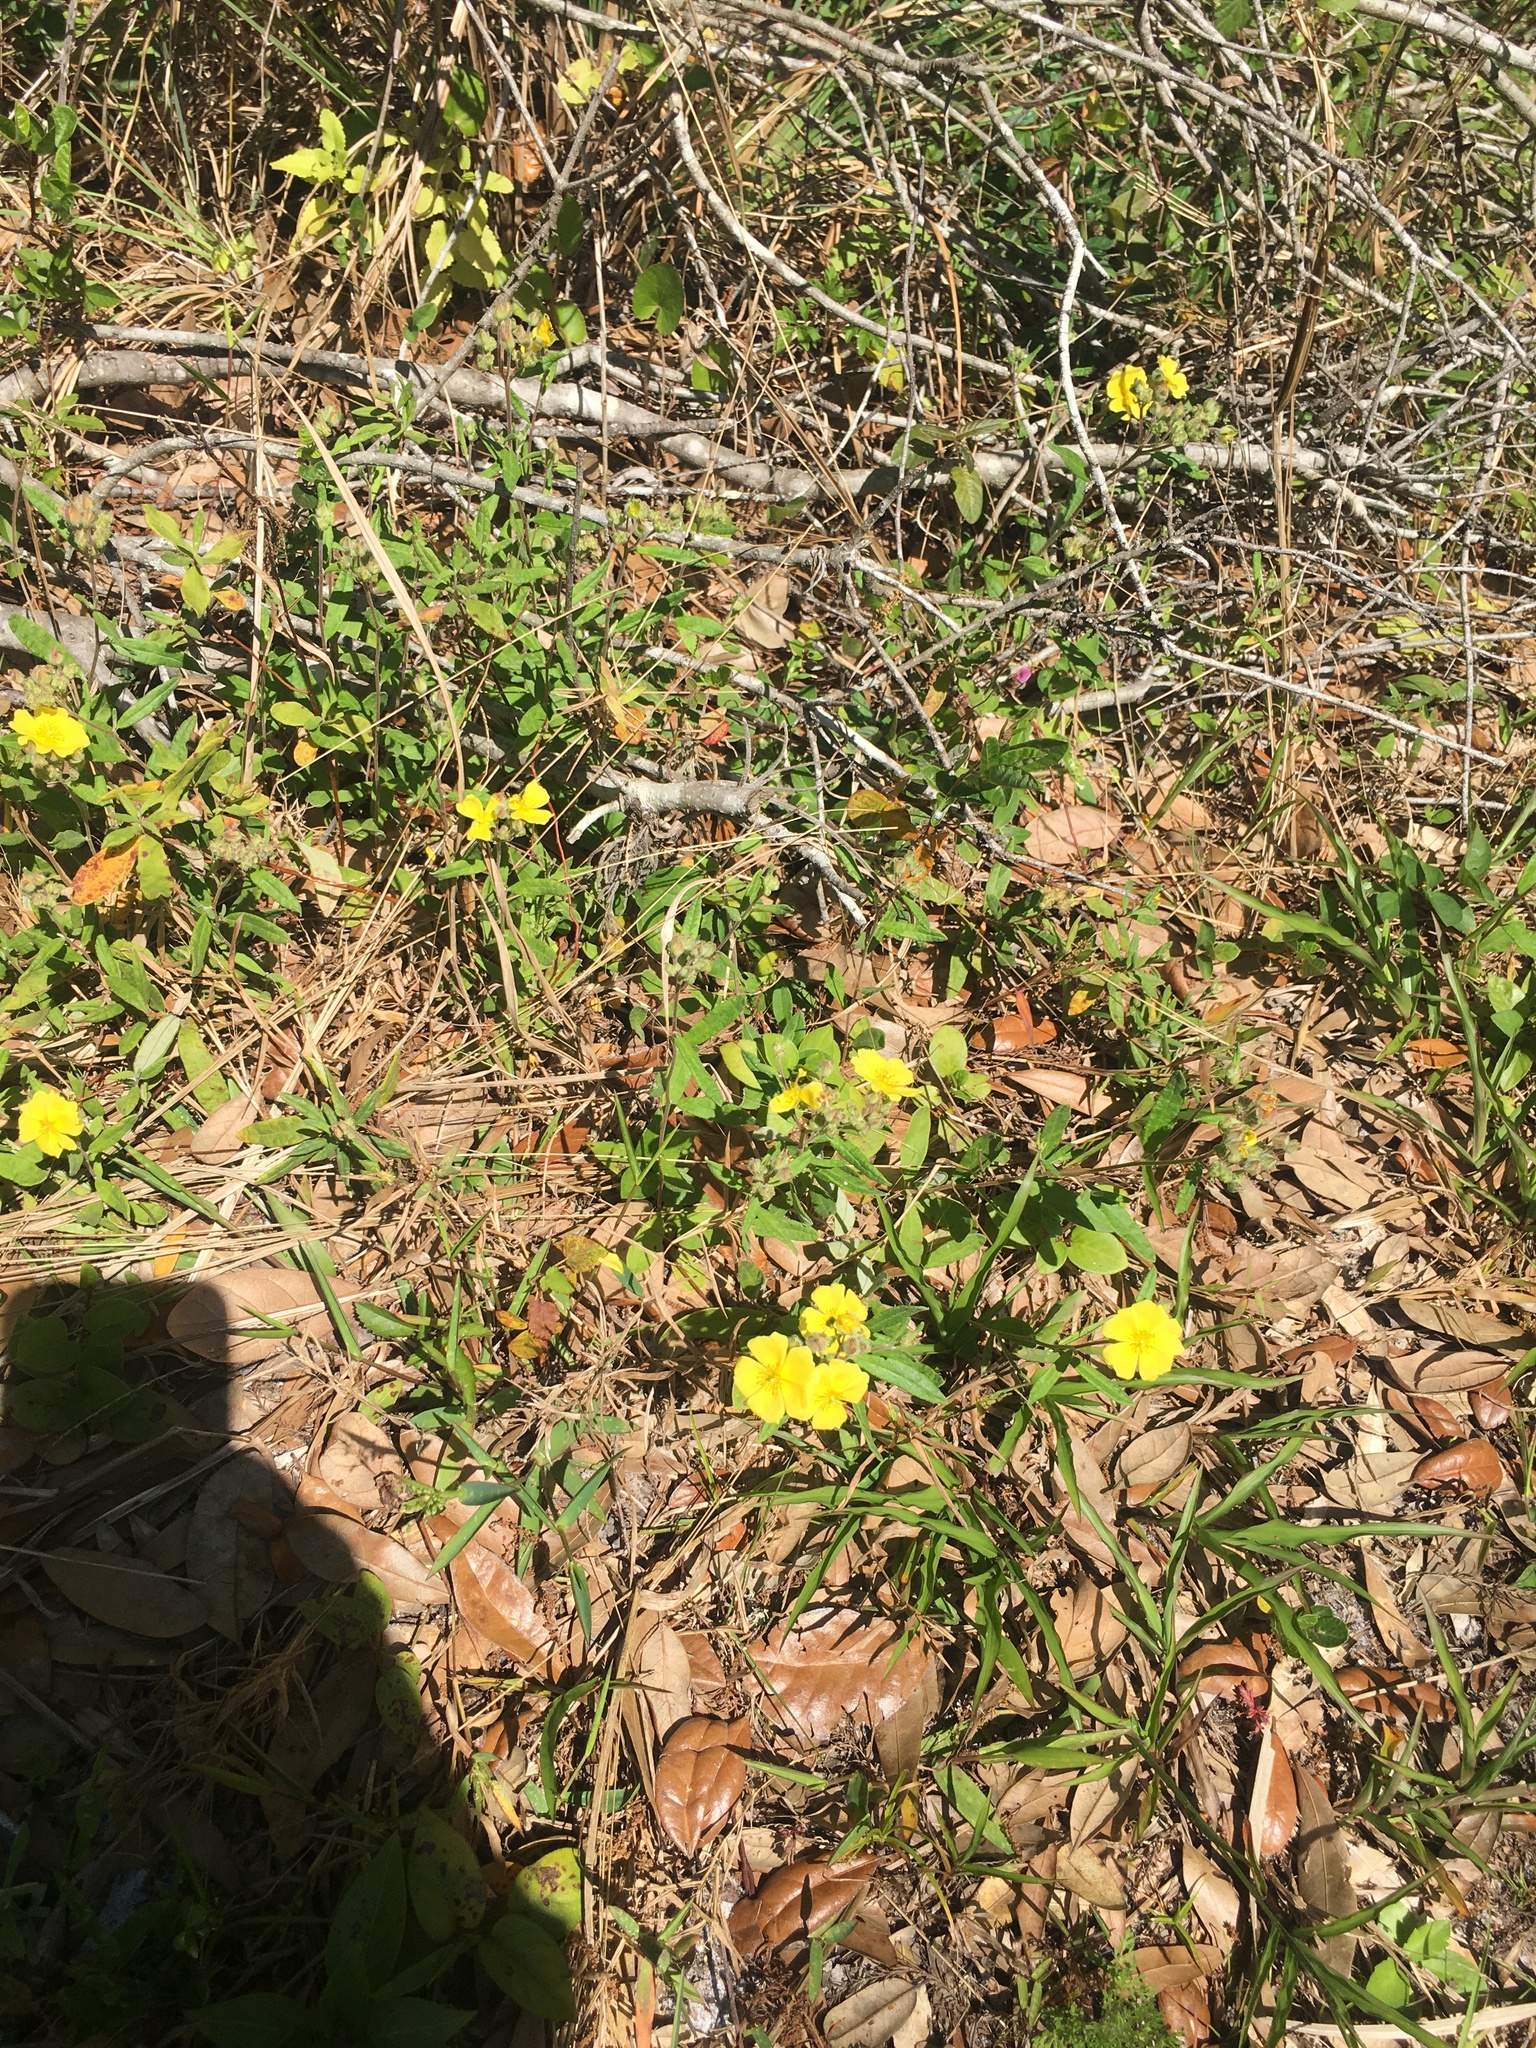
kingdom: Plantae
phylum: Tracheophyta
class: Magnoliopsida
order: Malvales
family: Cistaceae
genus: Crocanthemum
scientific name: Crocanthemum corymbosum
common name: Pinebarren sun-rose
